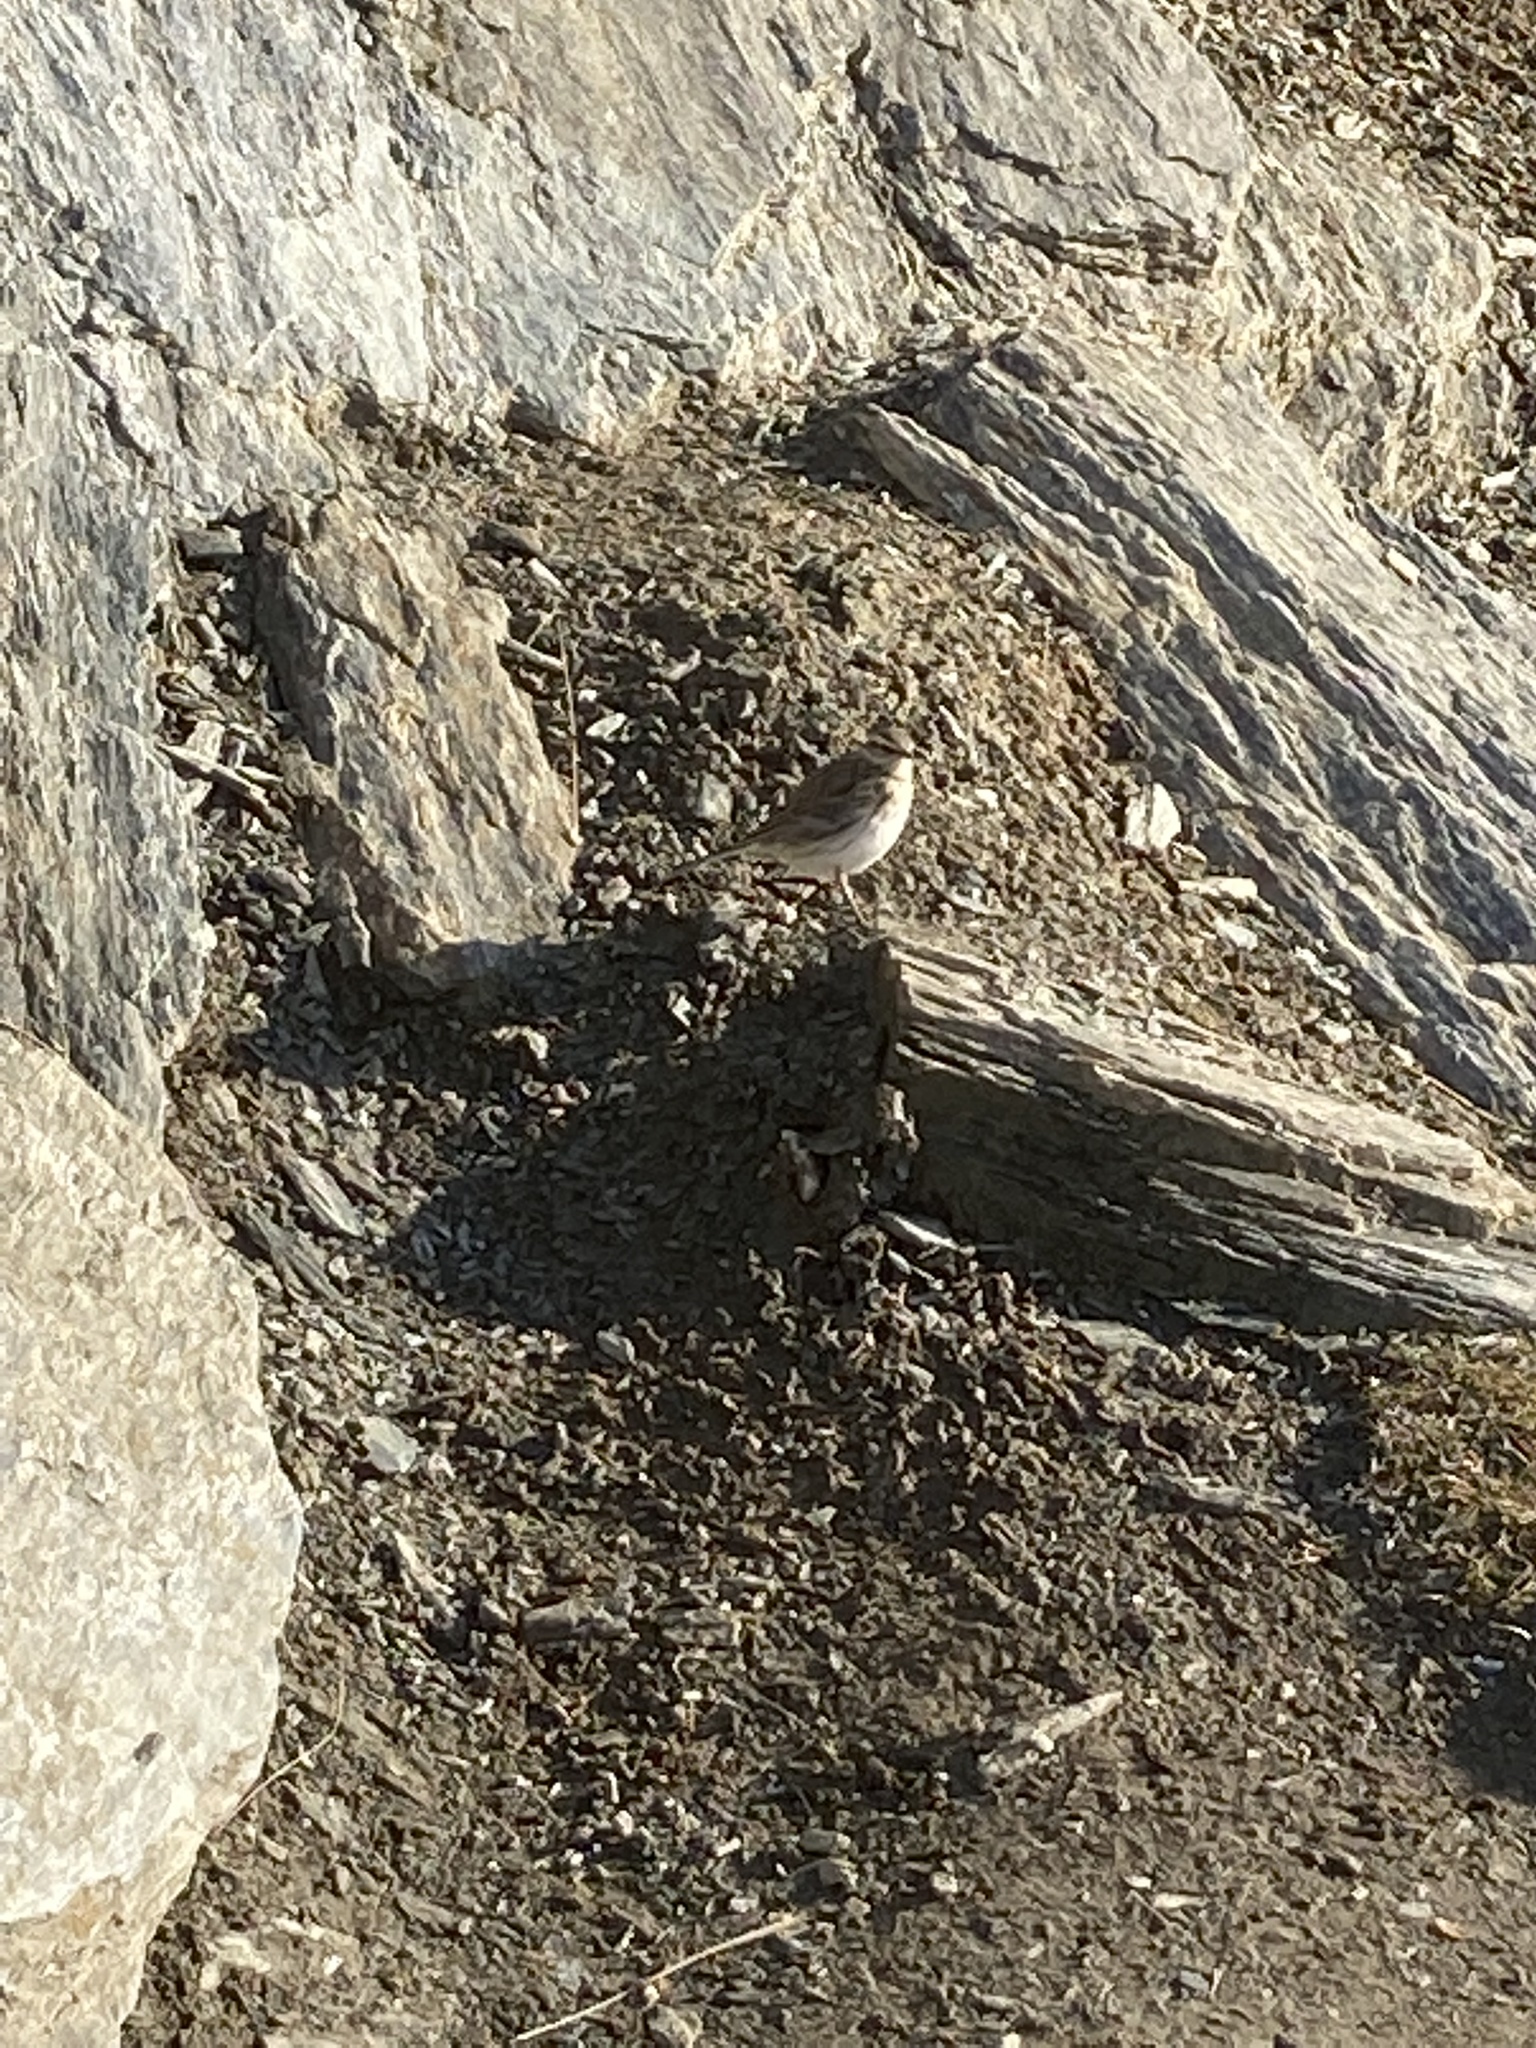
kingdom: Animalia
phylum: Chordata
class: Aves
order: Passeriformes
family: Motacillidae
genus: Anthus
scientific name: Anthus novaeseelandiae
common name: New zealand pipit
